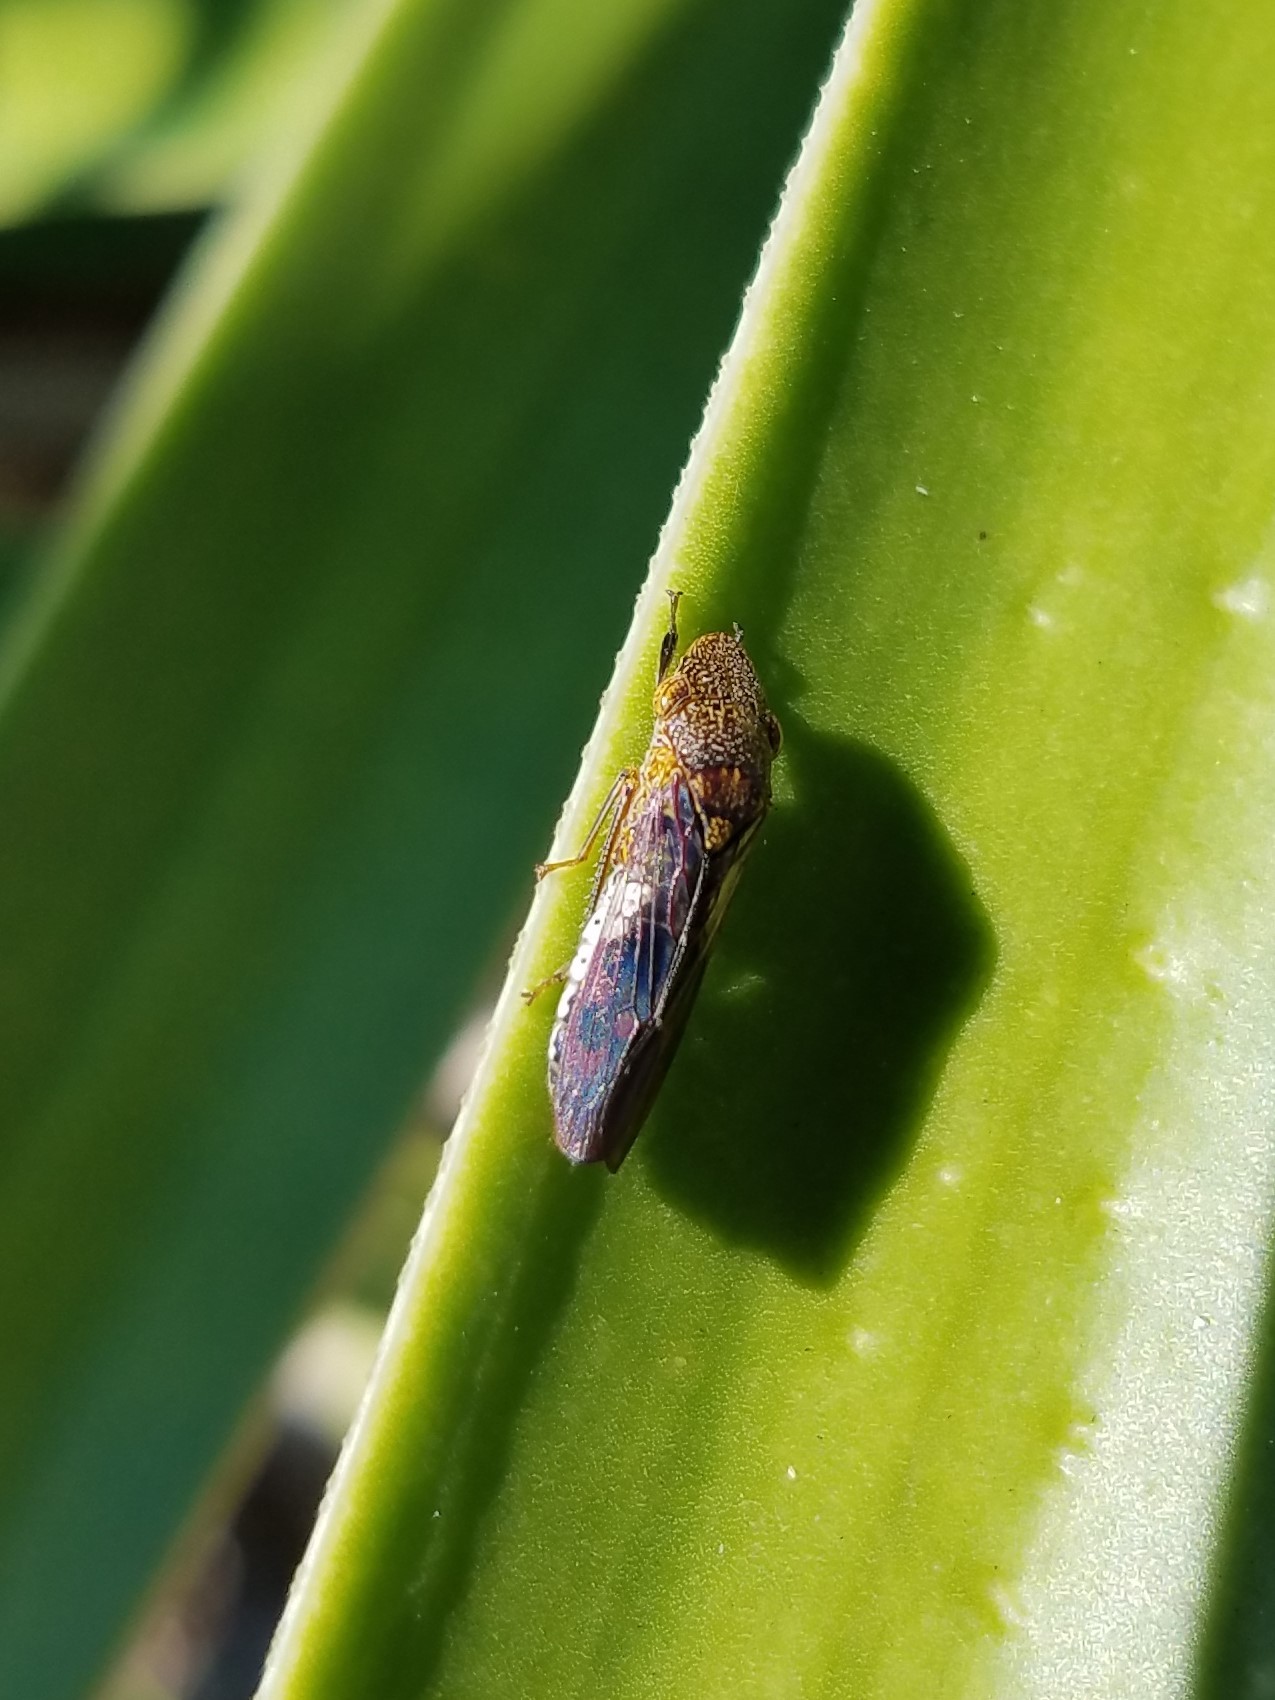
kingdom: Animalia
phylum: Arthropoda
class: Insecta
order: Hemiptera
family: Cicadellidae
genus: Homalodisca
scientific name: Homalodisca vitripennis
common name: Glassy-winged sharpshooter
